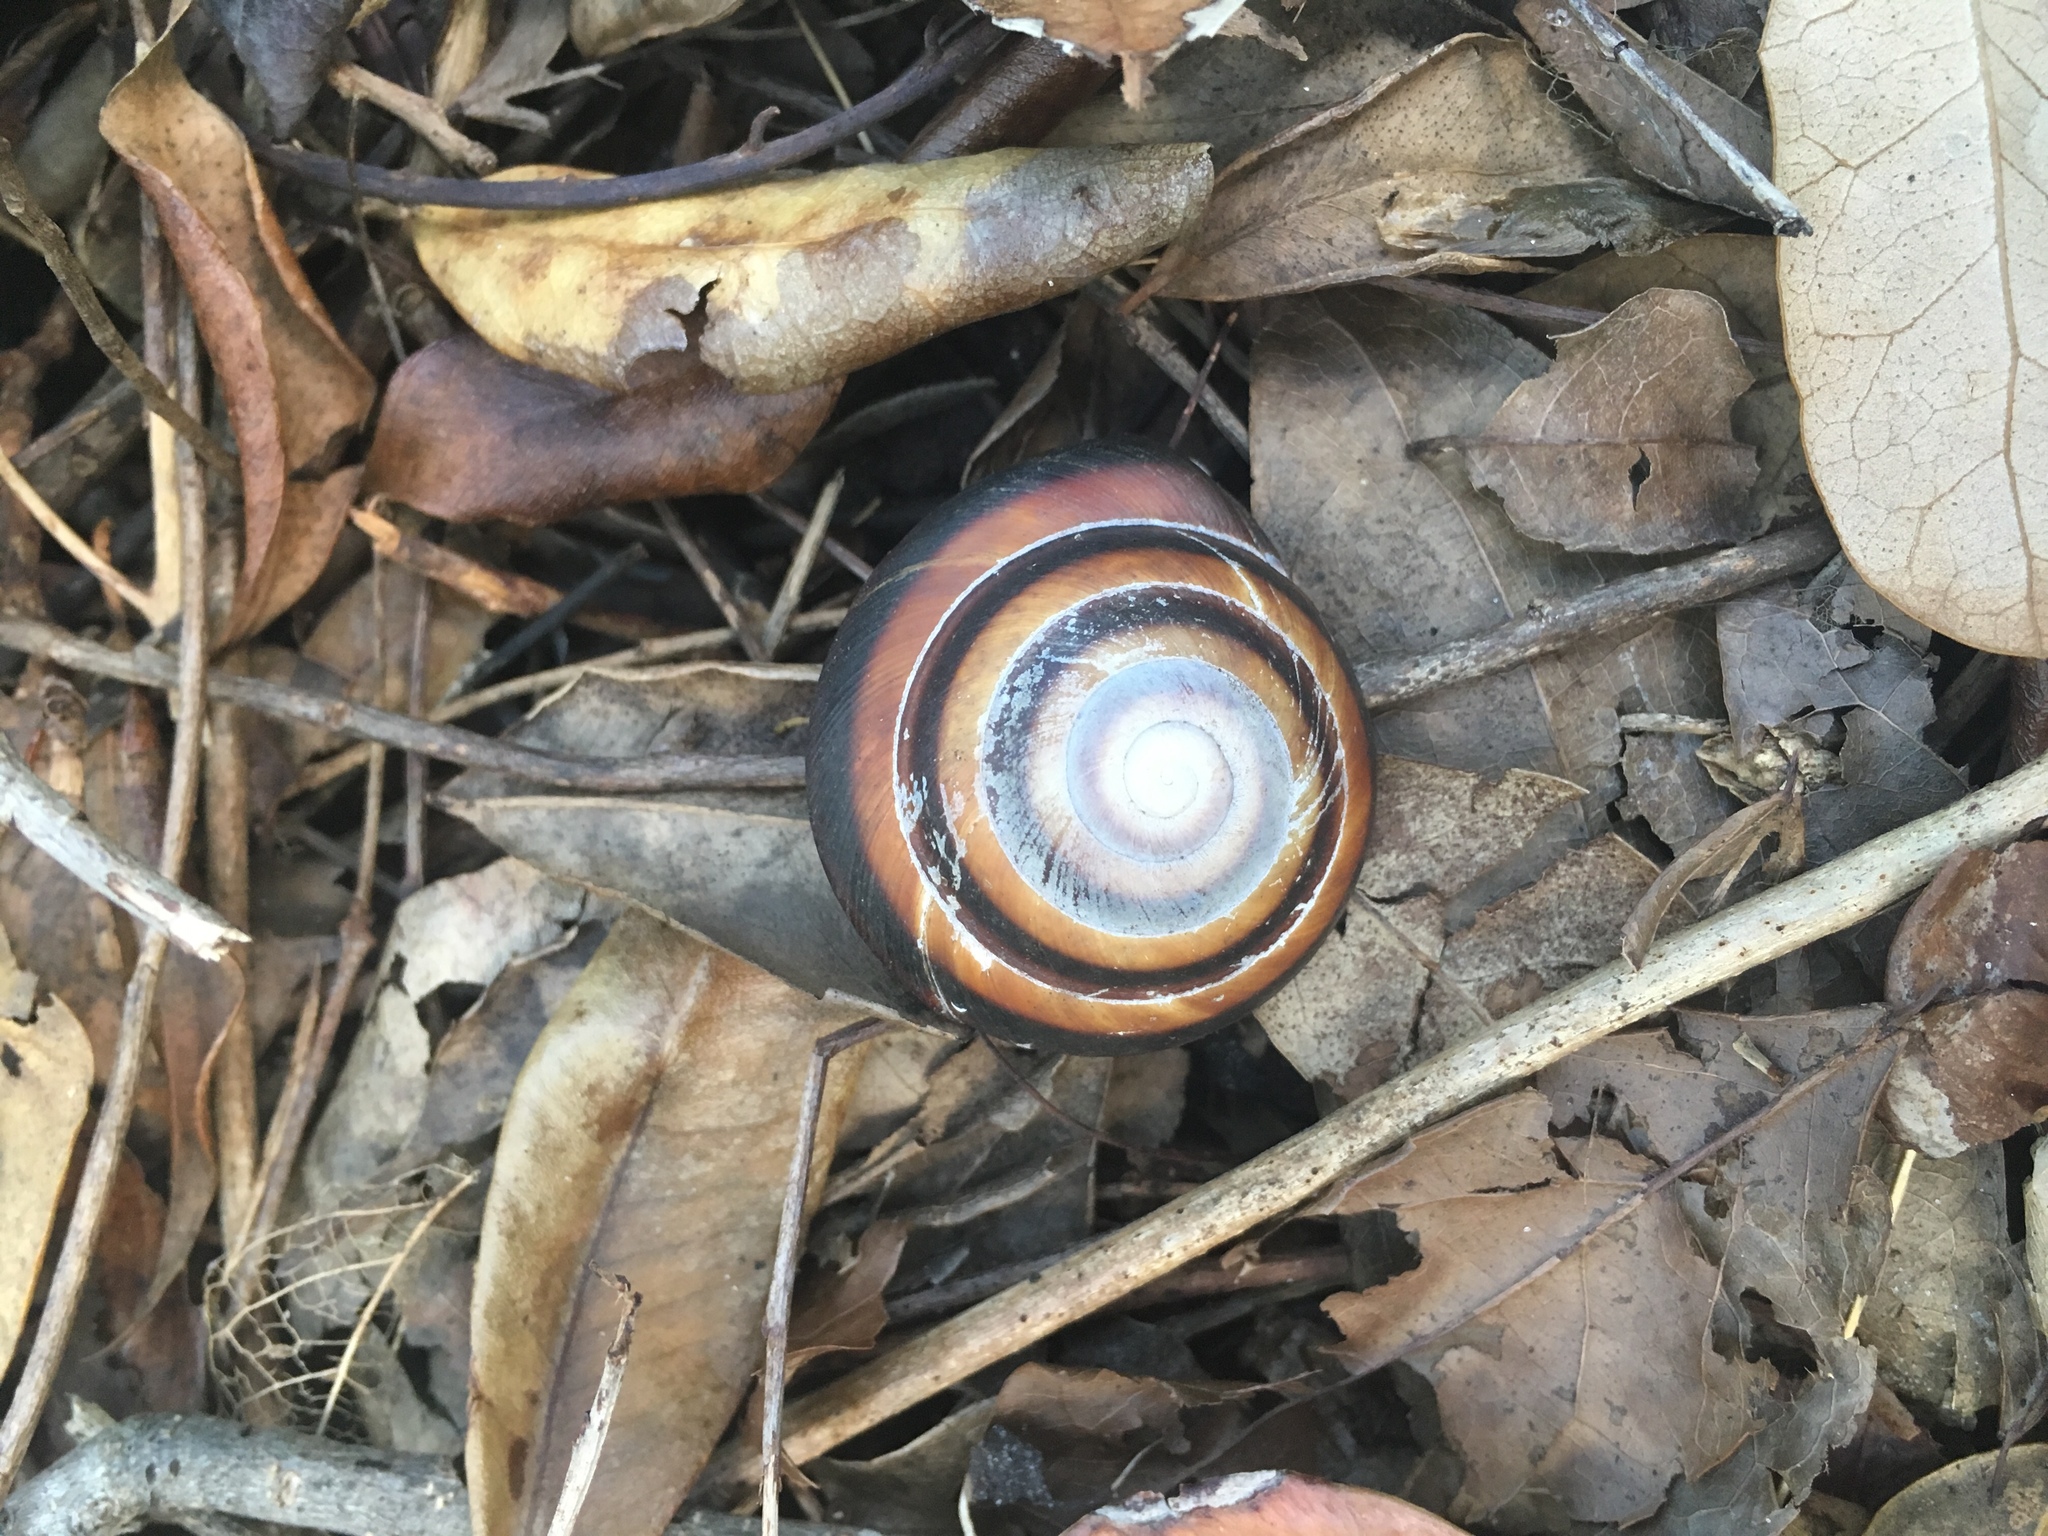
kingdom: Animalia
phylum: Mollusca
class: Gastropoda
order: Stylommatophora
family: Solaropsidae
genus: Caracolus
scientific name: Caracolus marginella
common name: Banded caracol
